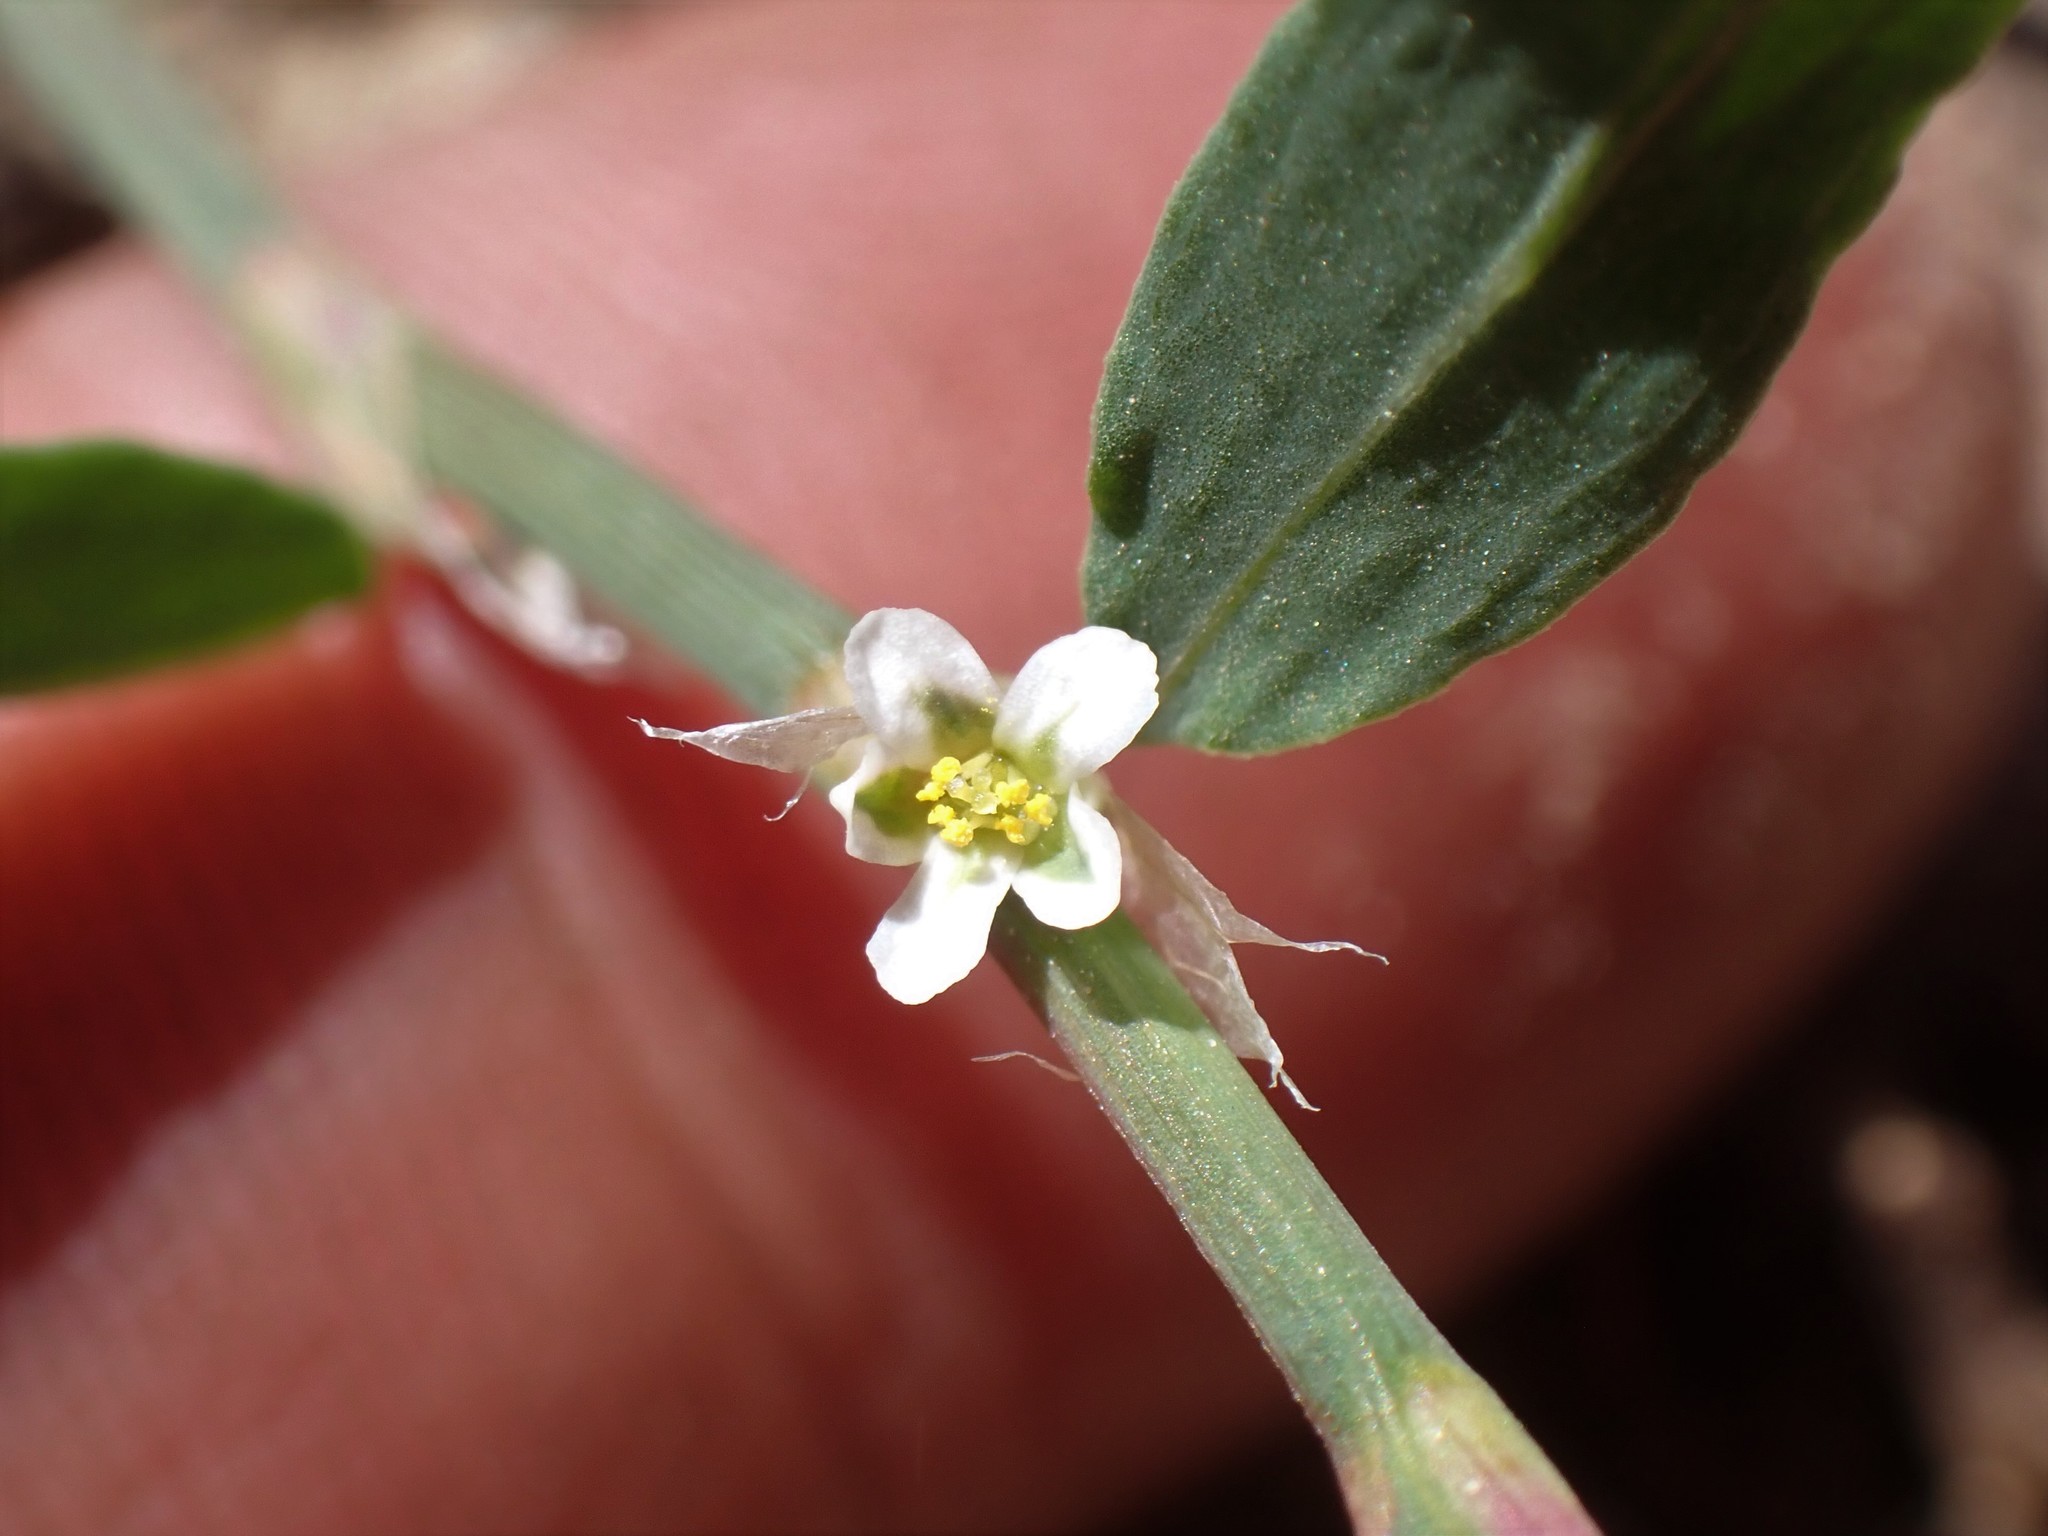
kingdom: Plantae
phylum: Tracheophyta
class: Magnoliopsida
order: Caryophyllales
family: Polygonaceae
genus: Polygonum
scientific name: Polygonum aviculare
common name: Prostrate knotweed
